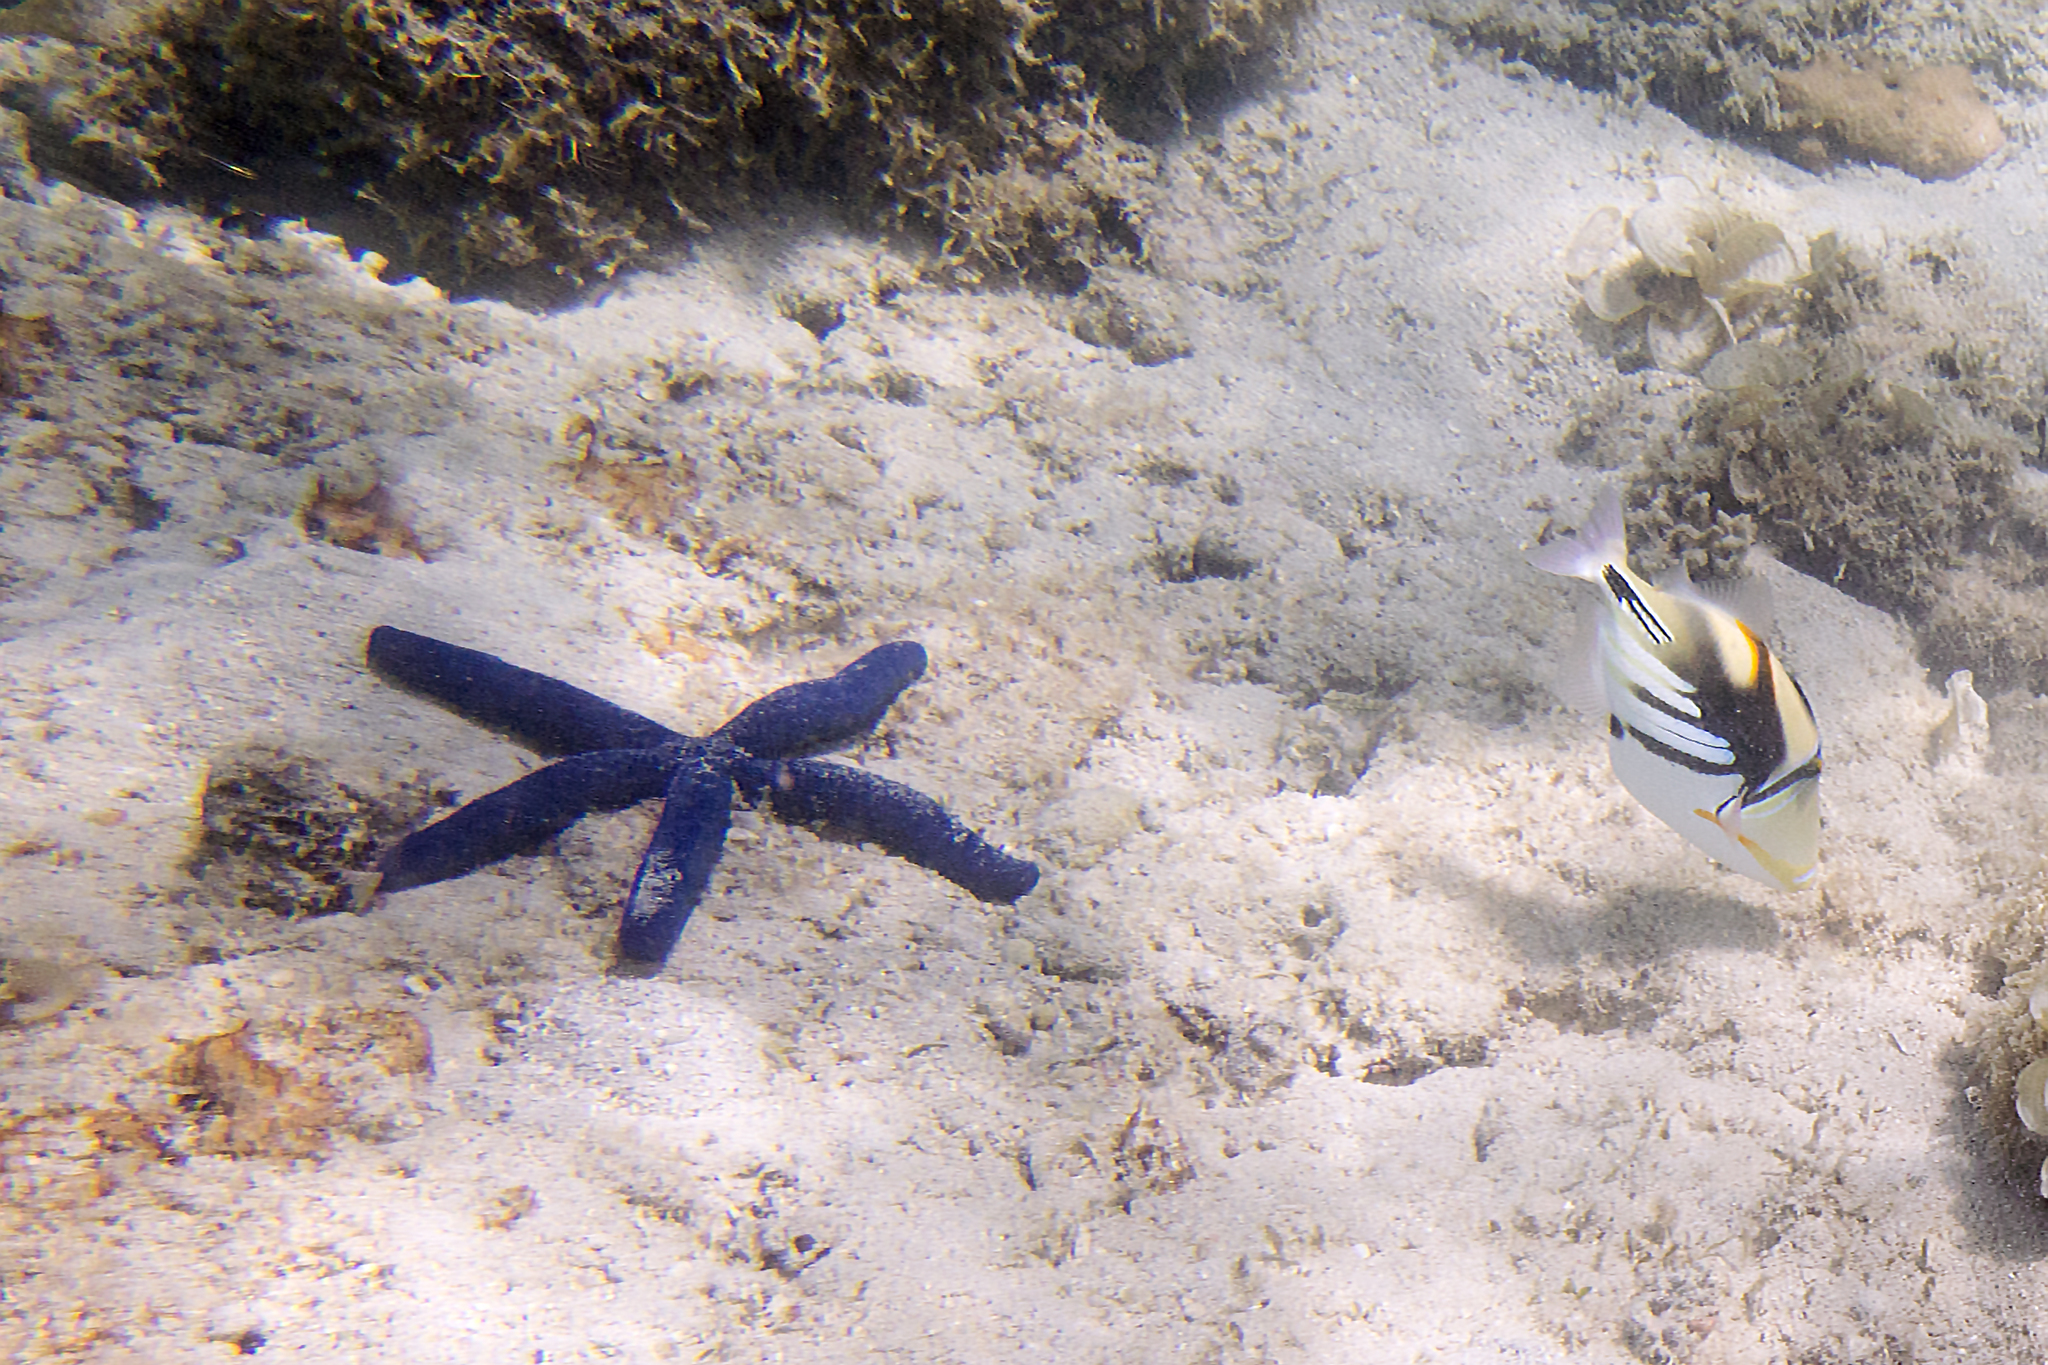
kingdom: Animalia
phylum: Echinodermata
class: Asteroidea
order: Valvatida
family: Ophidiasteridae
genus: Linckia
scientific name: Linckia laevigata
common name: Azure sea star
